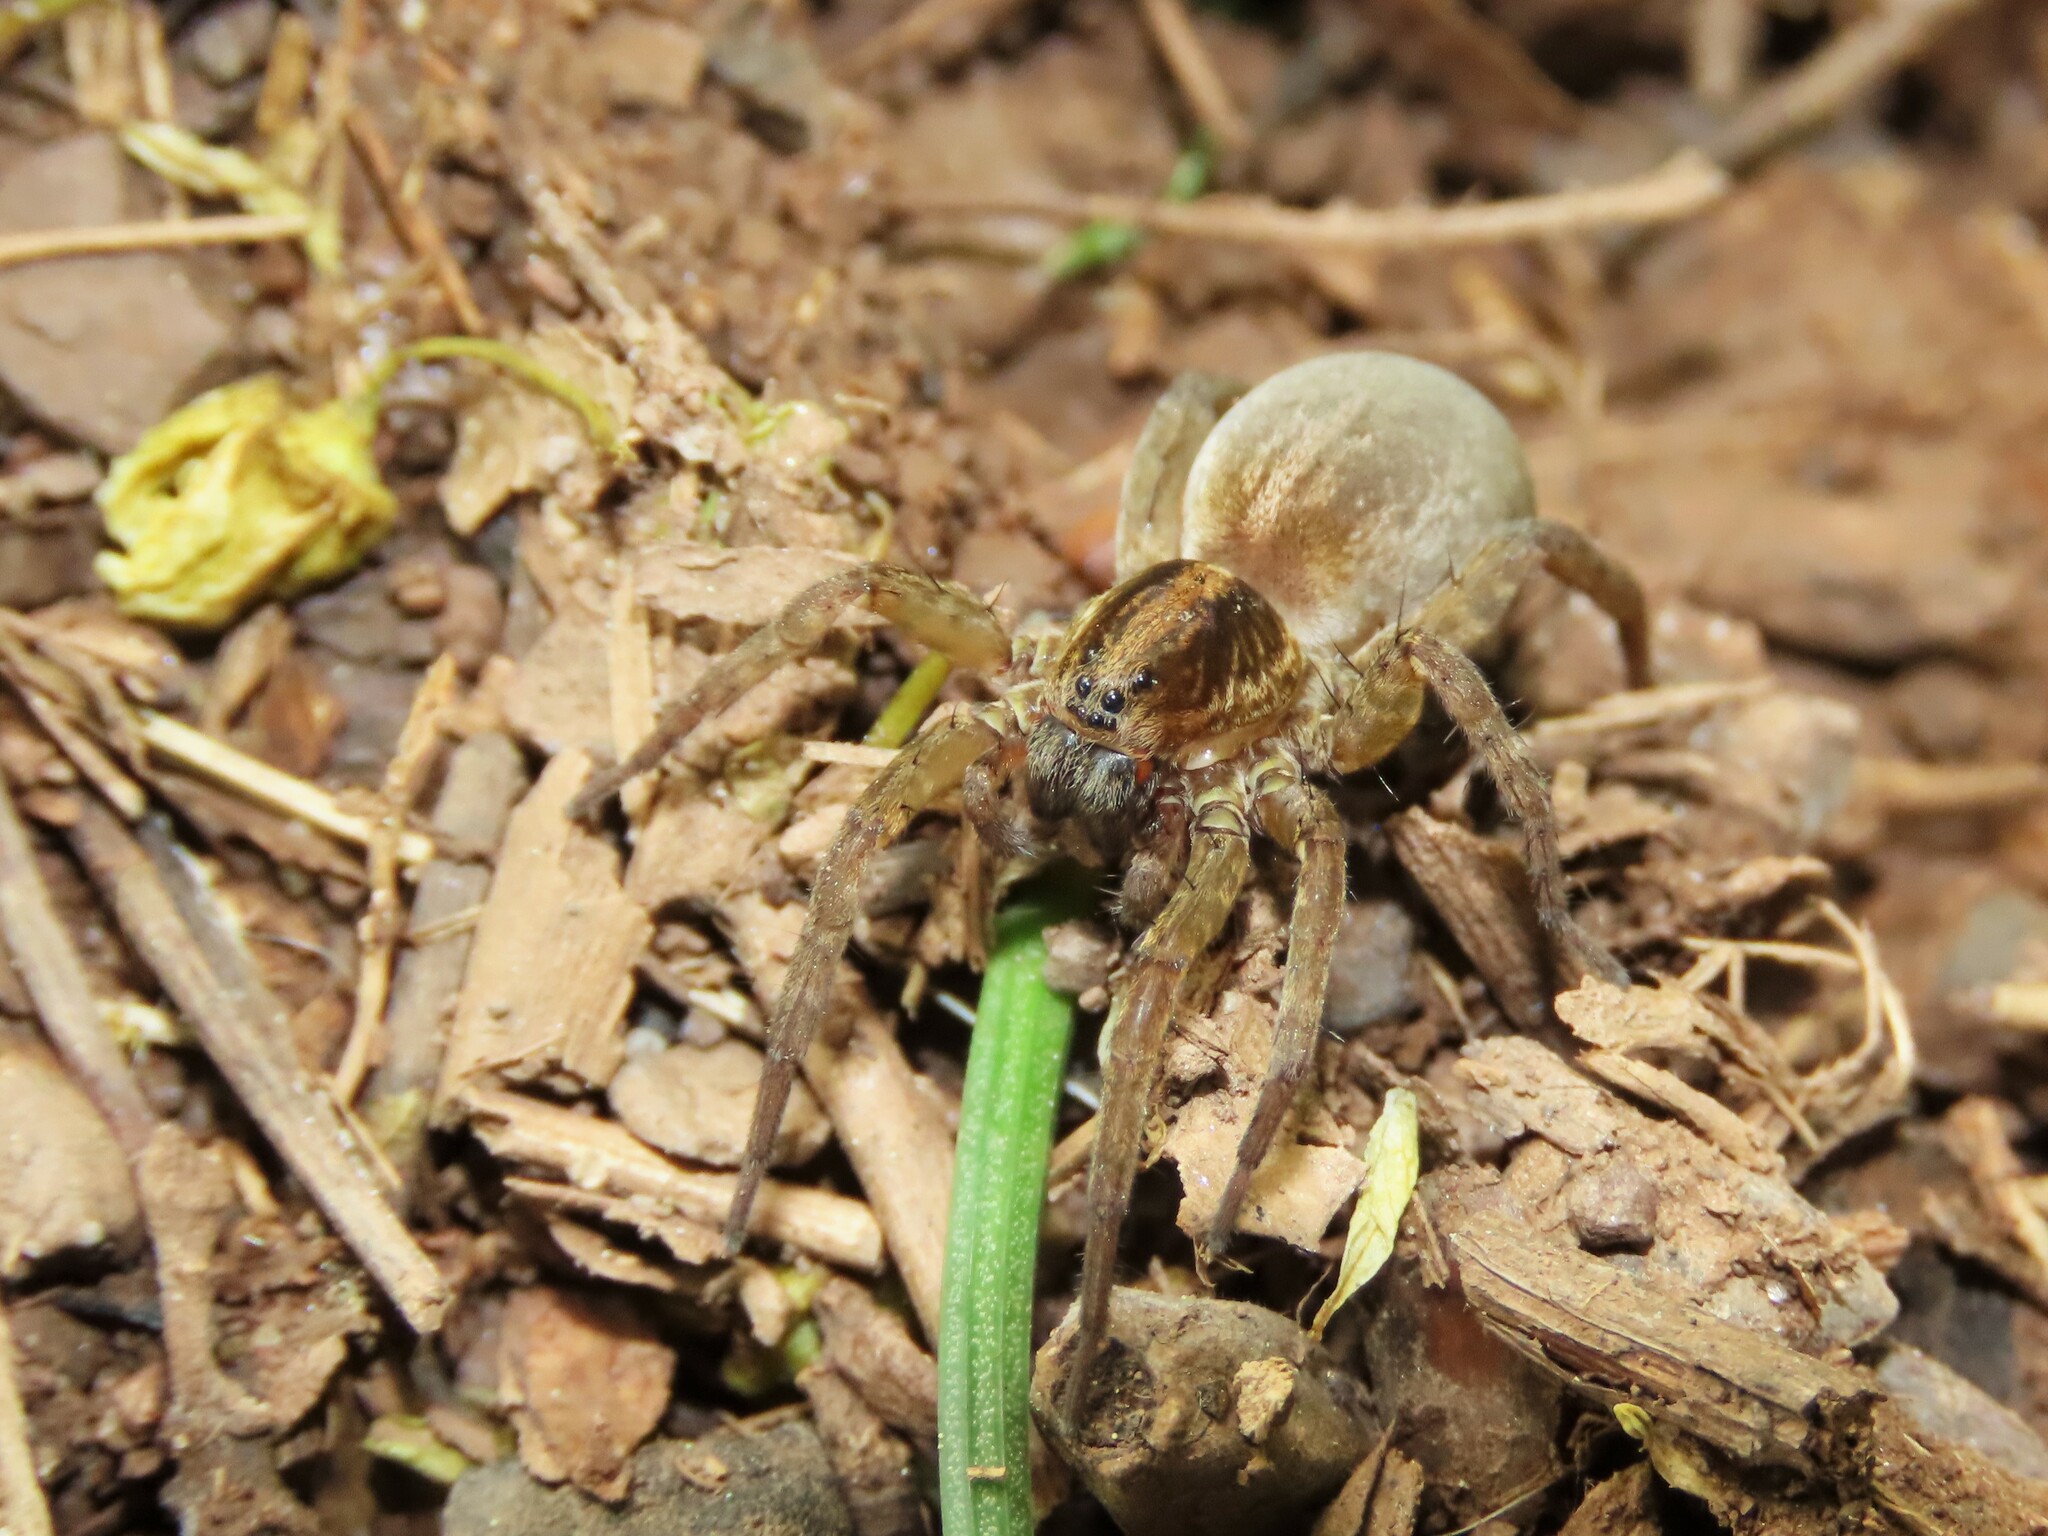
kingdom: Animalia
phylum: Arthropoda
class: Arachnida
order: Araneae
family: Lycosidae
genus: Trochosa
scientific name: Trochosa ruricola
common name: Spider
